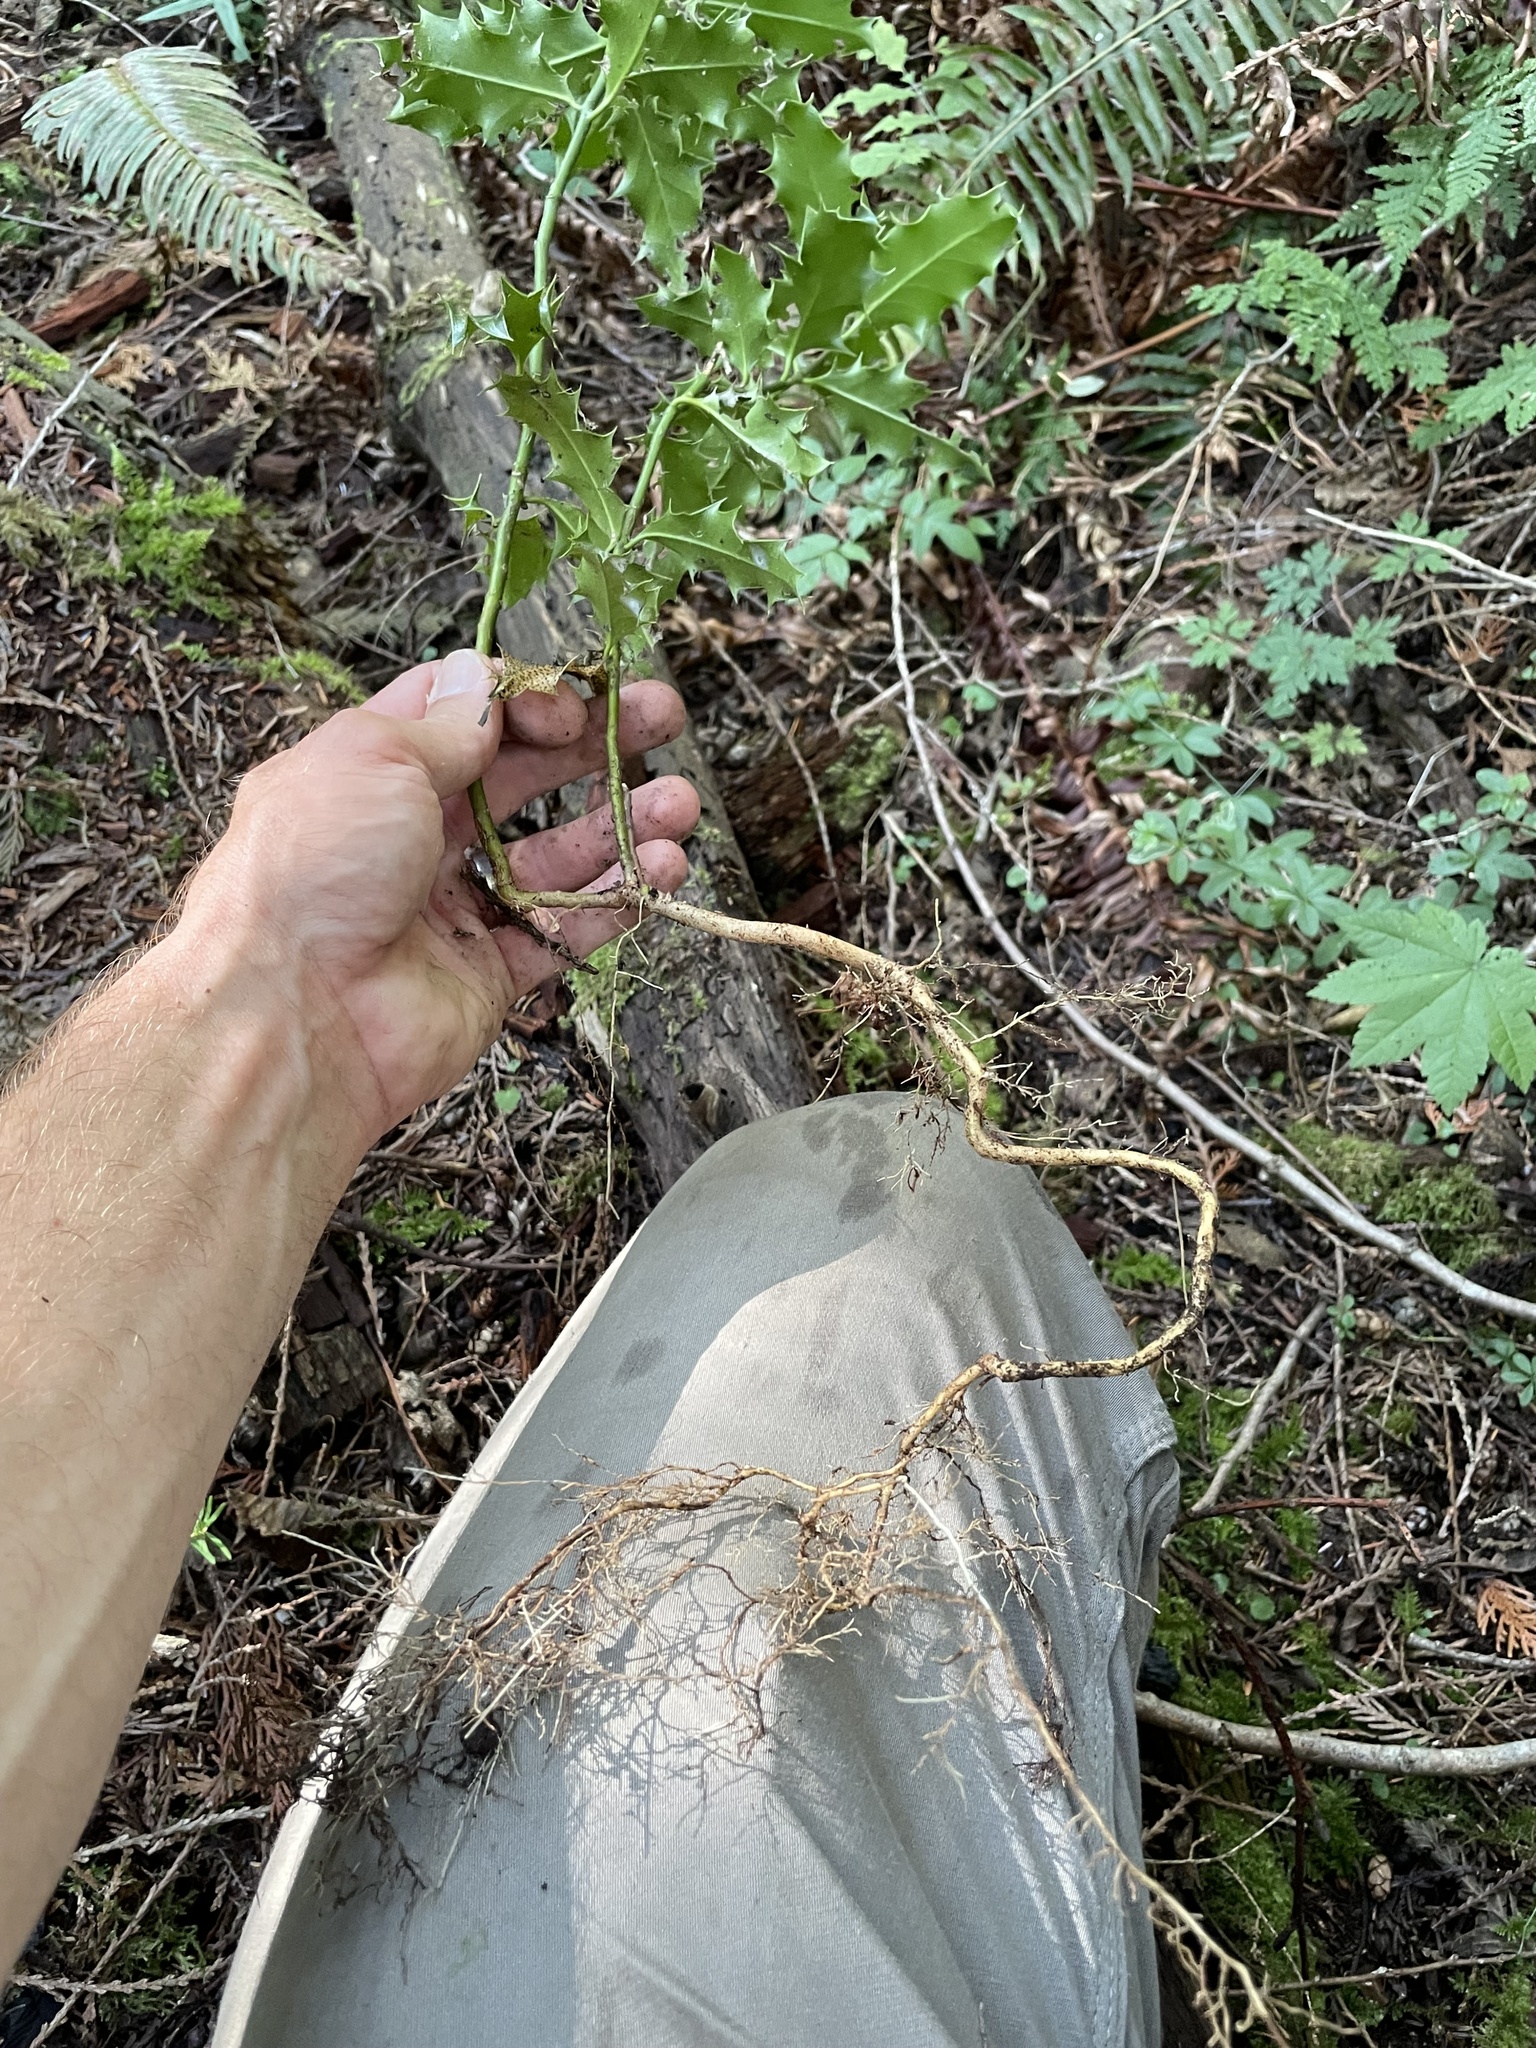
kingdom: Plantae
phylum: Tracheophyta
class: Magnoliopsida
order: Aquifoliales
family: Aquifoliaceae
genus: Ilex
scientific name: Ilex aquifolium
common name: English holly
